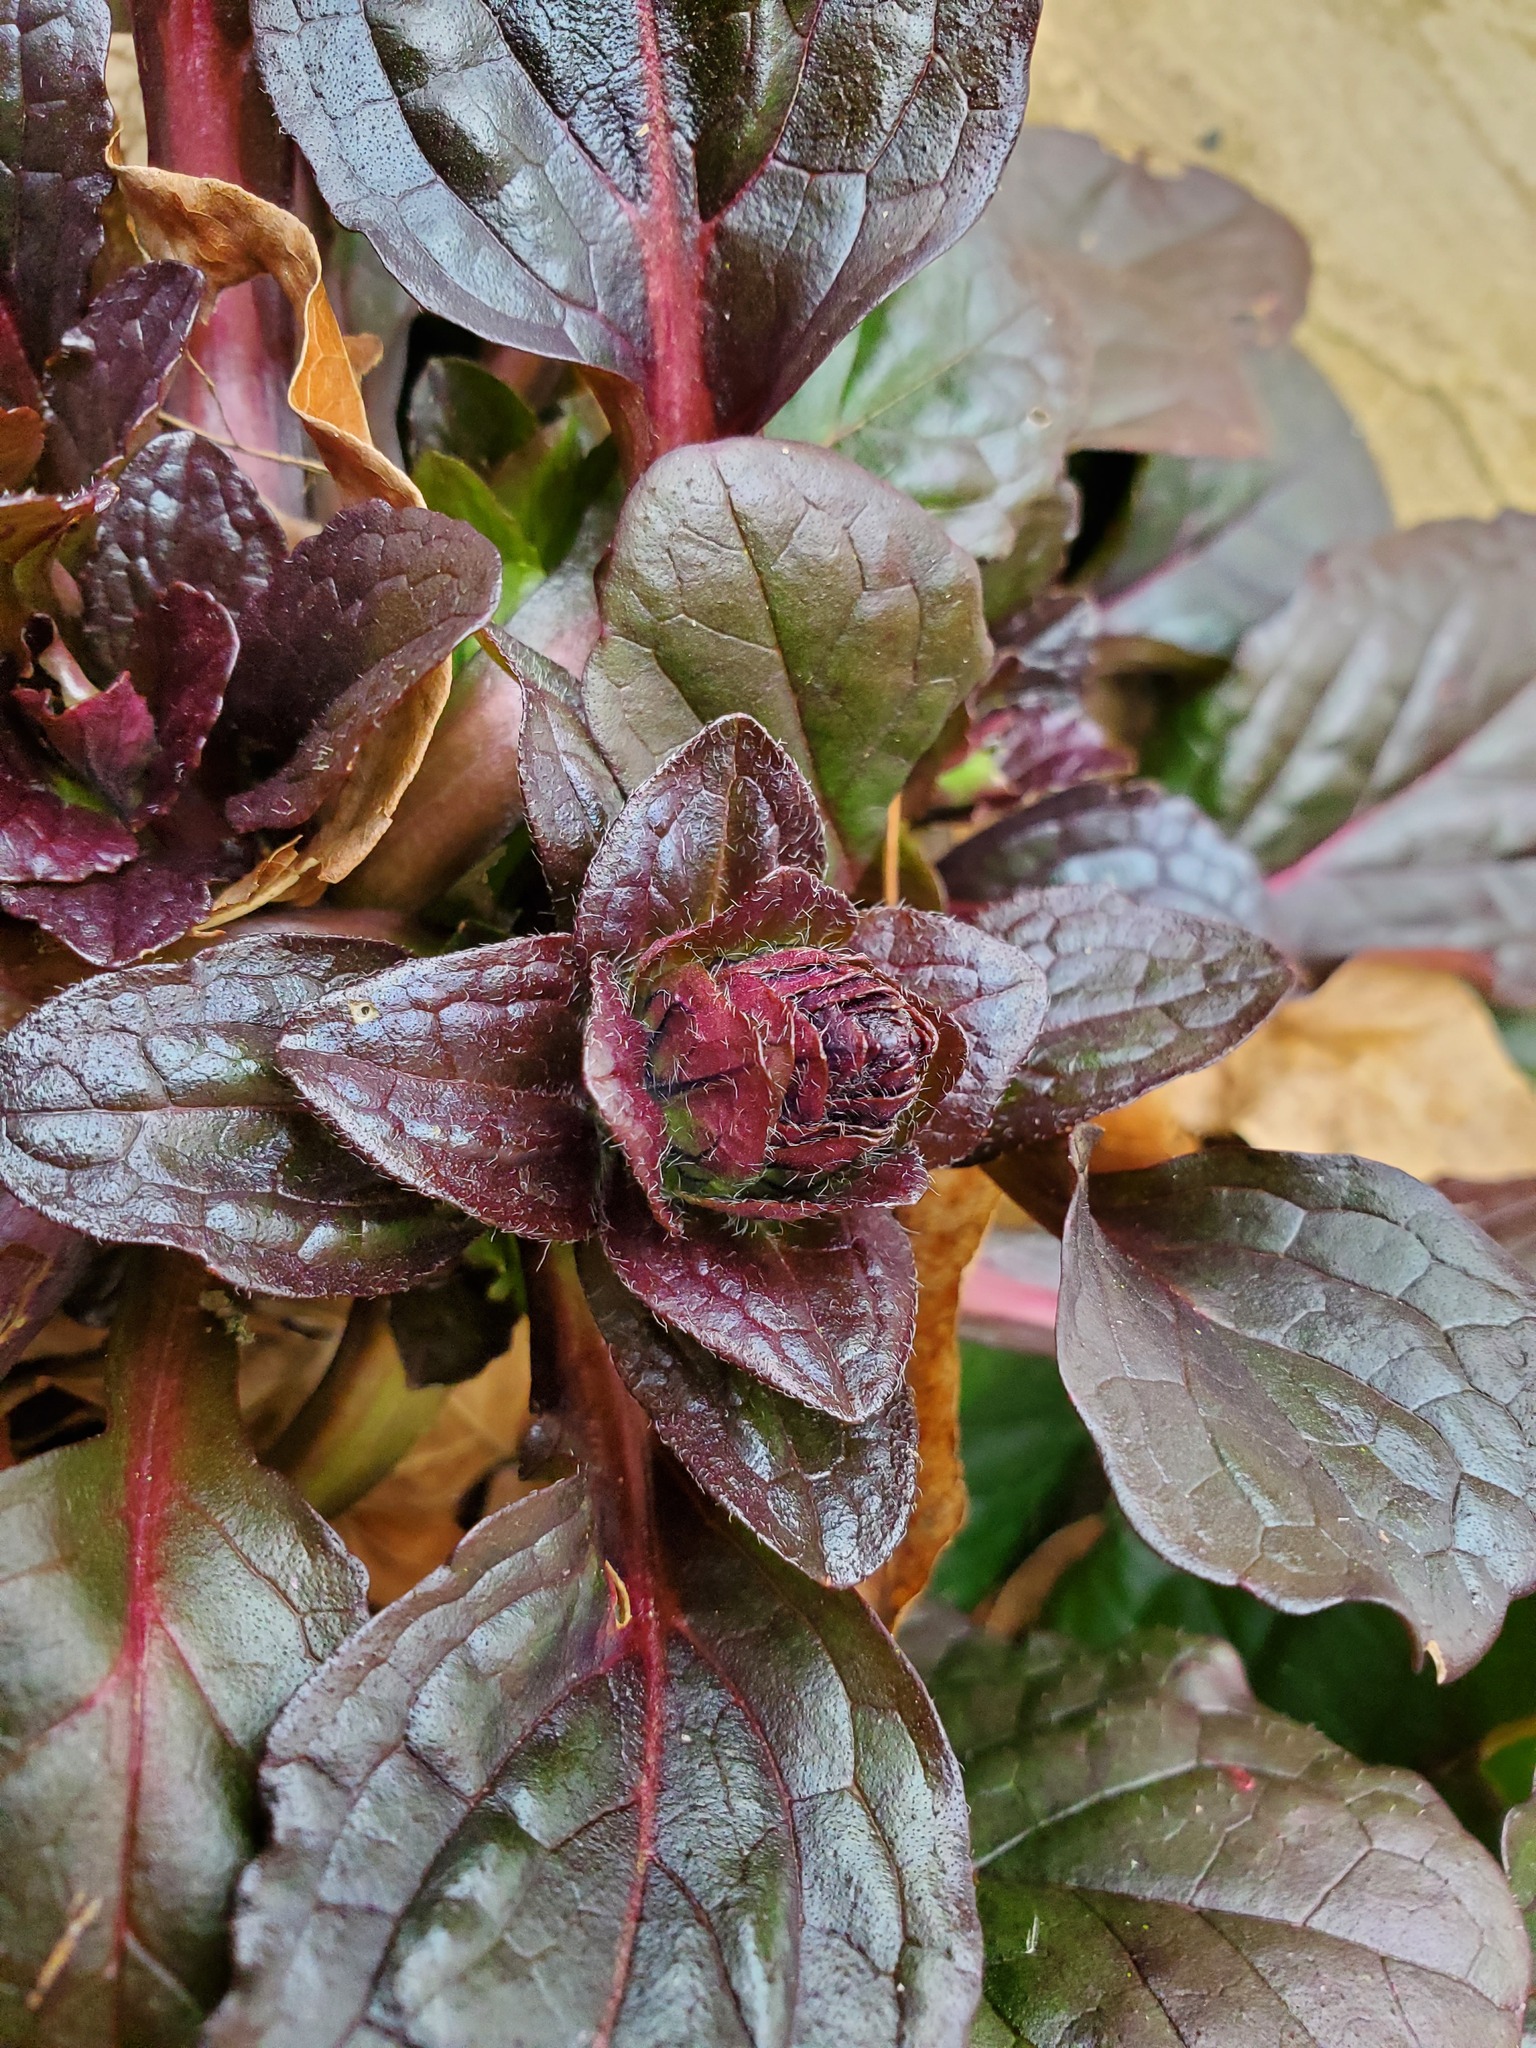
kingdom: Plantae
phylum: Tracheophyta
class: Magnoliopsida
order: Lamiales
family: Lamiaceae
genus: Ajuga
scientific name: Ajuga reptans
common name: Bugle
